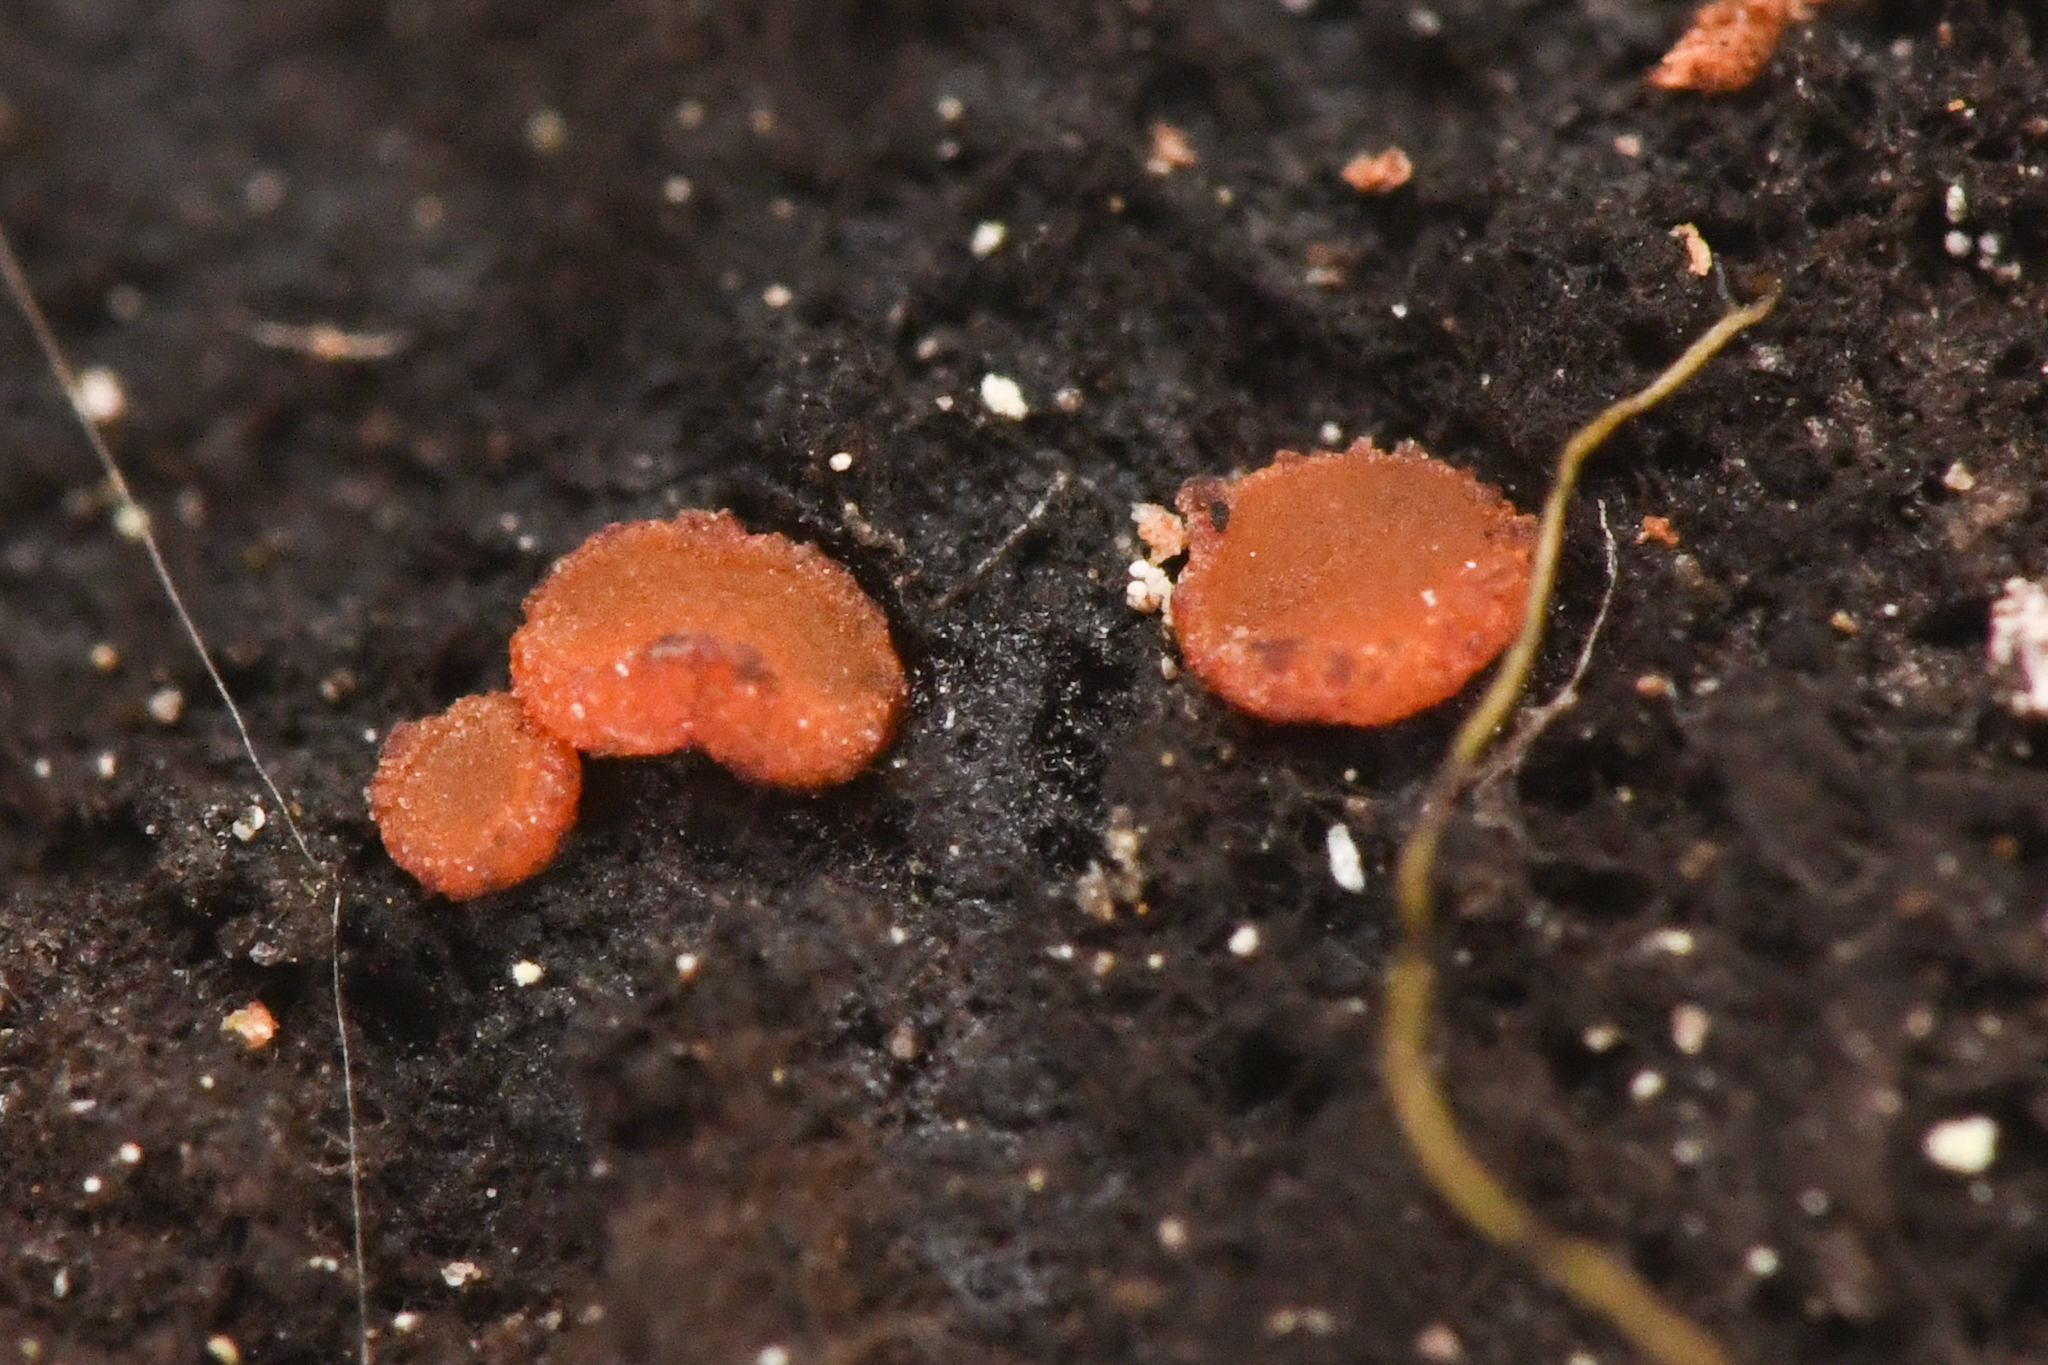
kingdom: Fungi
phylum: Ascomycota
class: Sareomycetes
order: Sareales
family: Sareaceae
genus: Sarea
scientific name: Sarea resinae
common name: Sarea lichen
